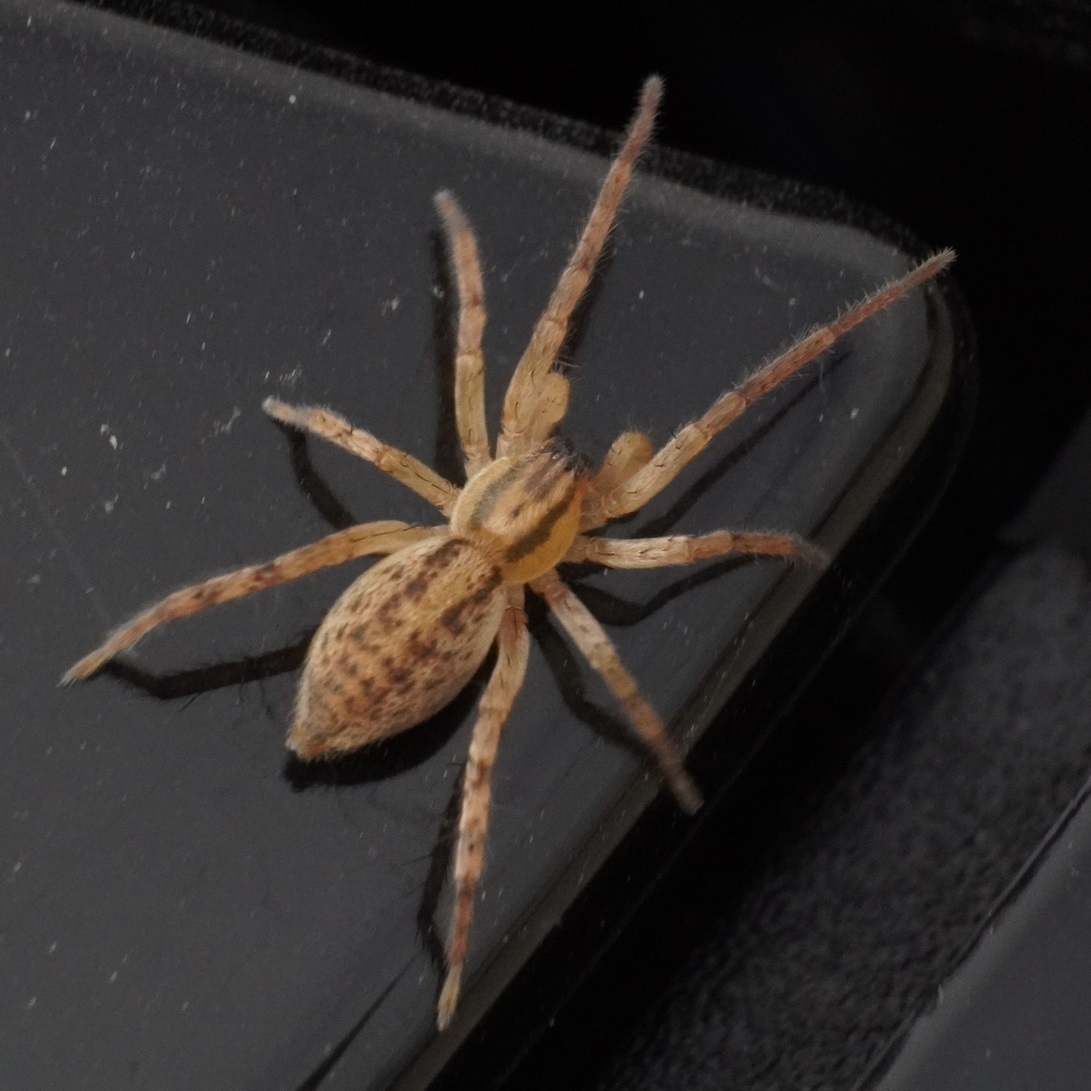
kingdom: Animalia
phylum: Arthropoda
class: Arachnida
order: Araneae
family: Anyphaenidae
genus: Hibana
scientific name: Hibana gracilis
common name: Garden ghost spider
